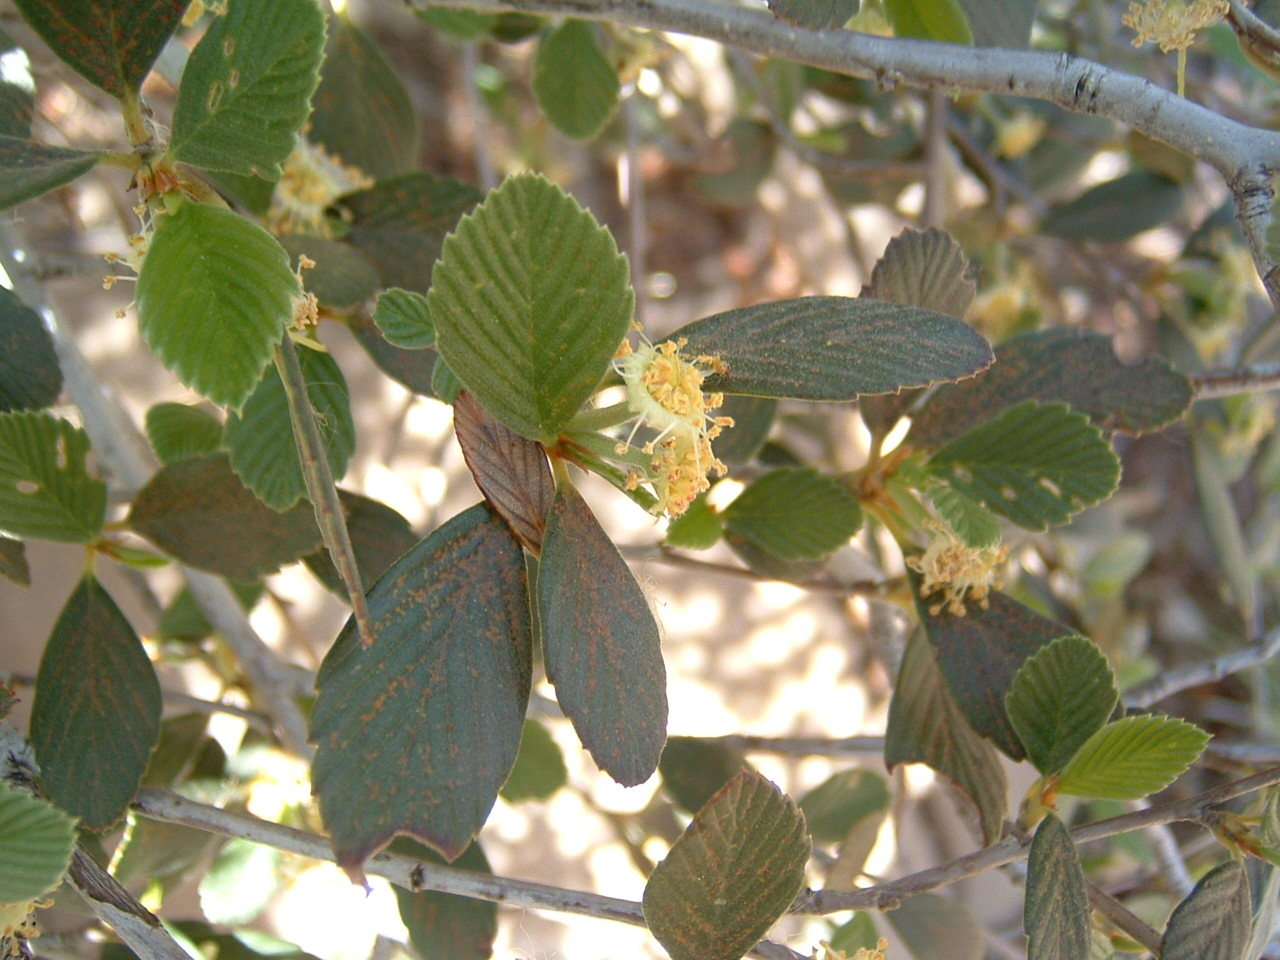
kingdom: Plantae
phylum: Tracheophyta
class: Magnoliopsida
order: Rosales
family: Rosaceae
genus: Cercocarpus
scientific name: Cercocarpus betuloides
